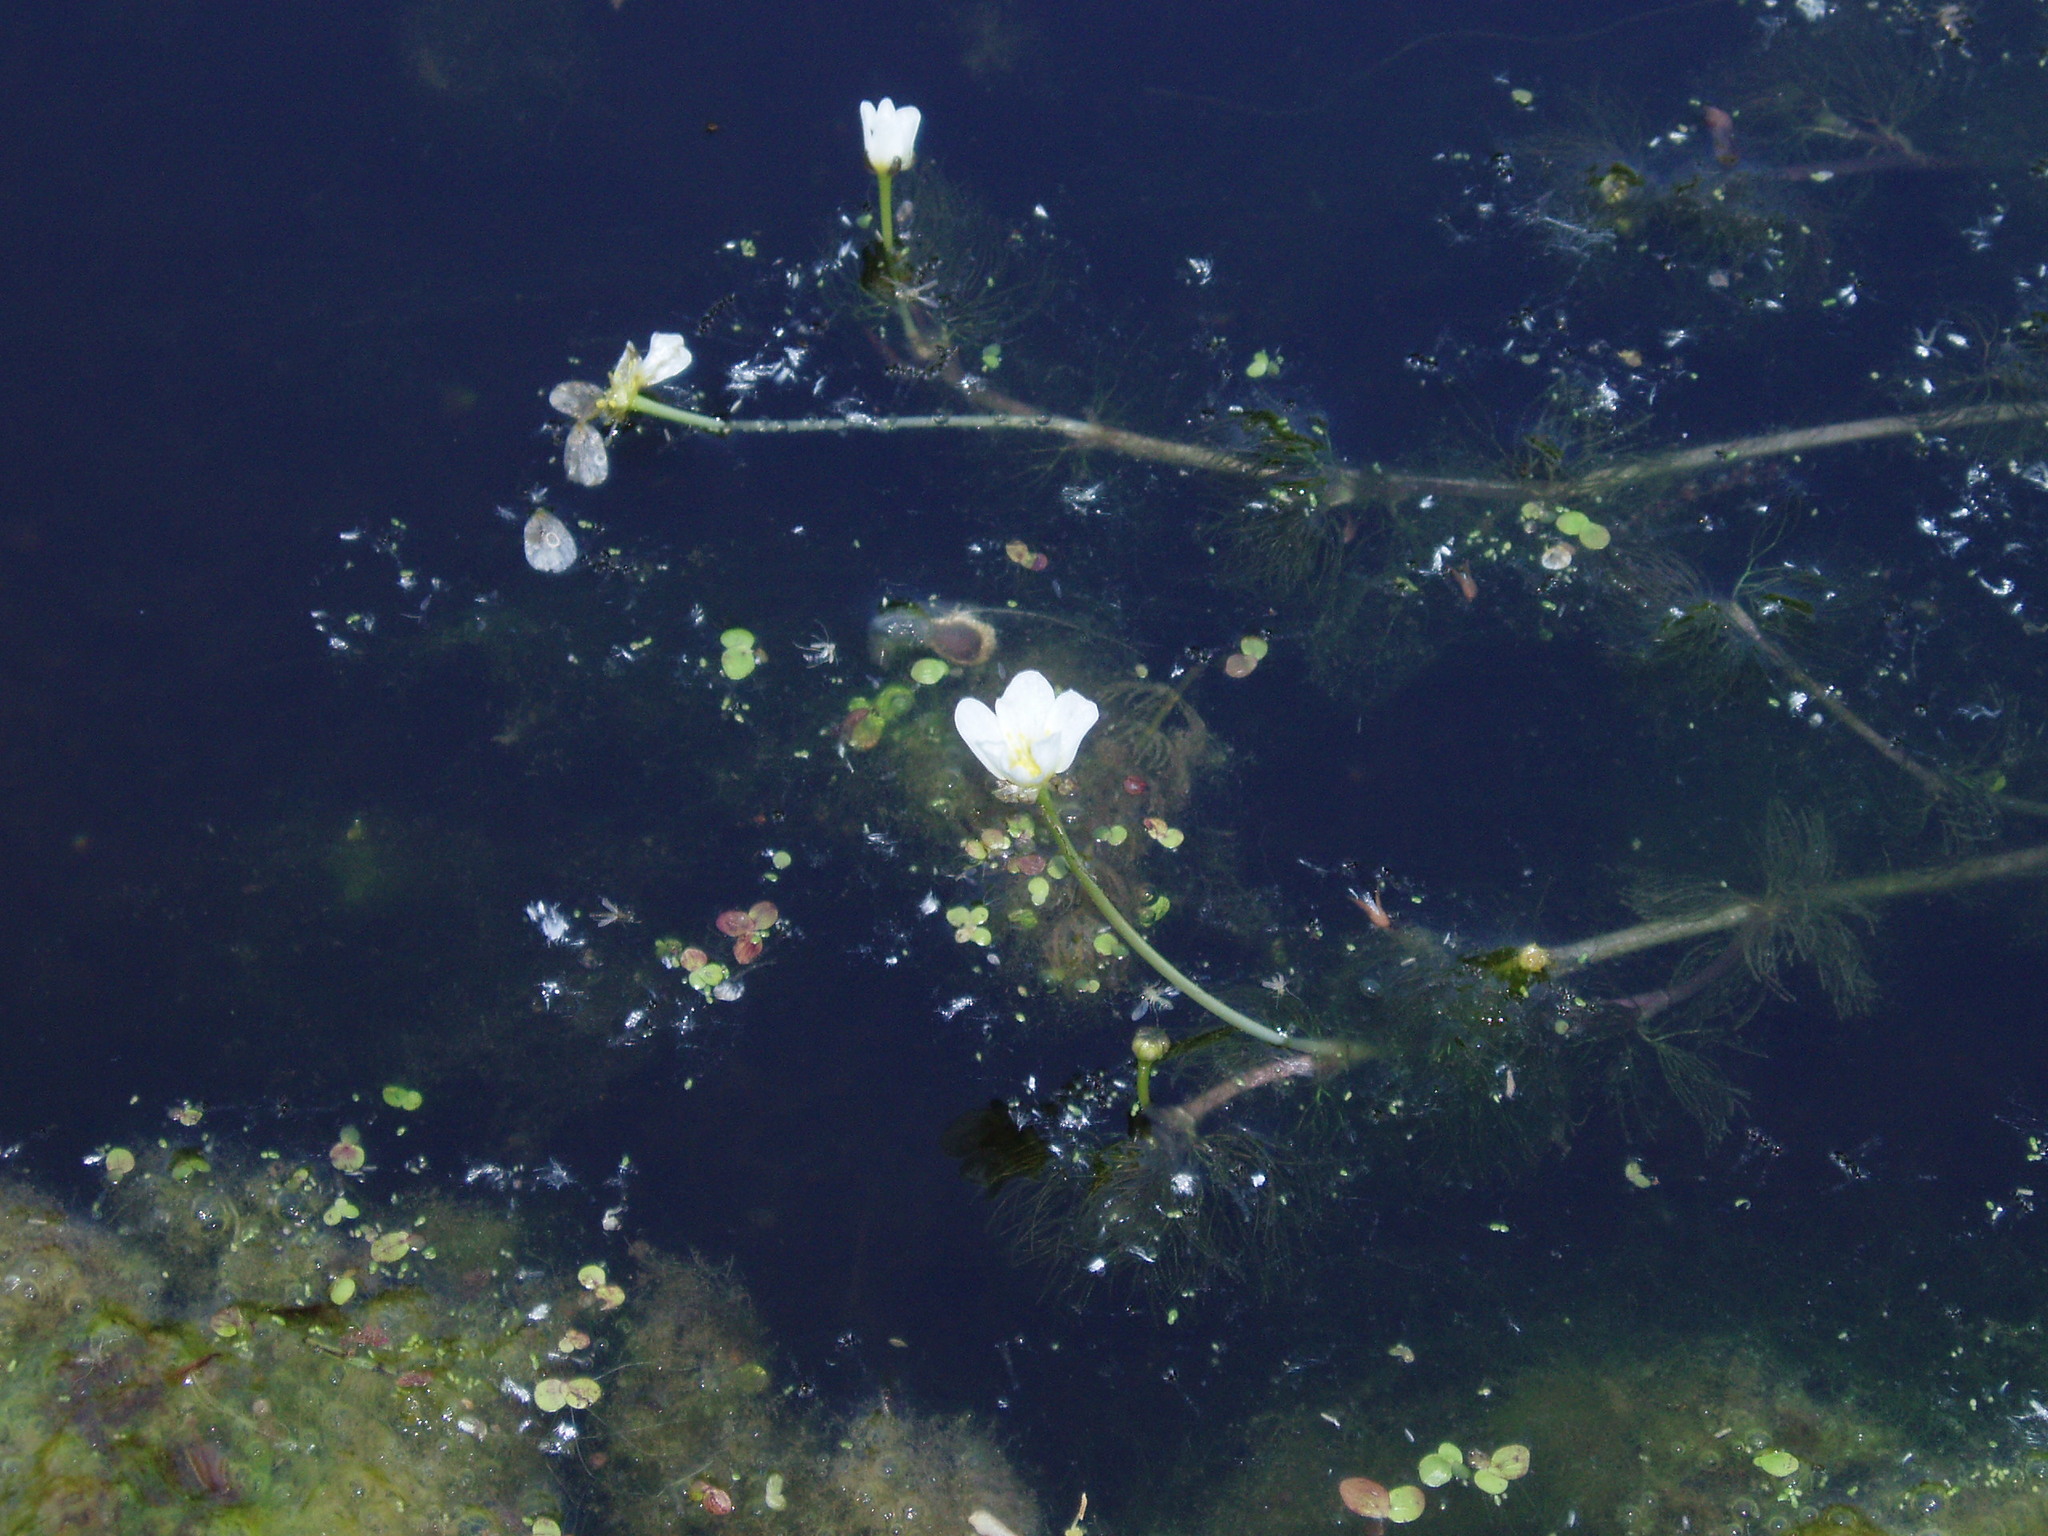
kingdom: Plantae
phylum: Tracheophyta
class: Magnoliopsida
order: Ranunculales
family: Ranunculaceae
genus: Ranunculus
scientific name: Ranunculus longirostris
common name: Curly white water-crowfoot
